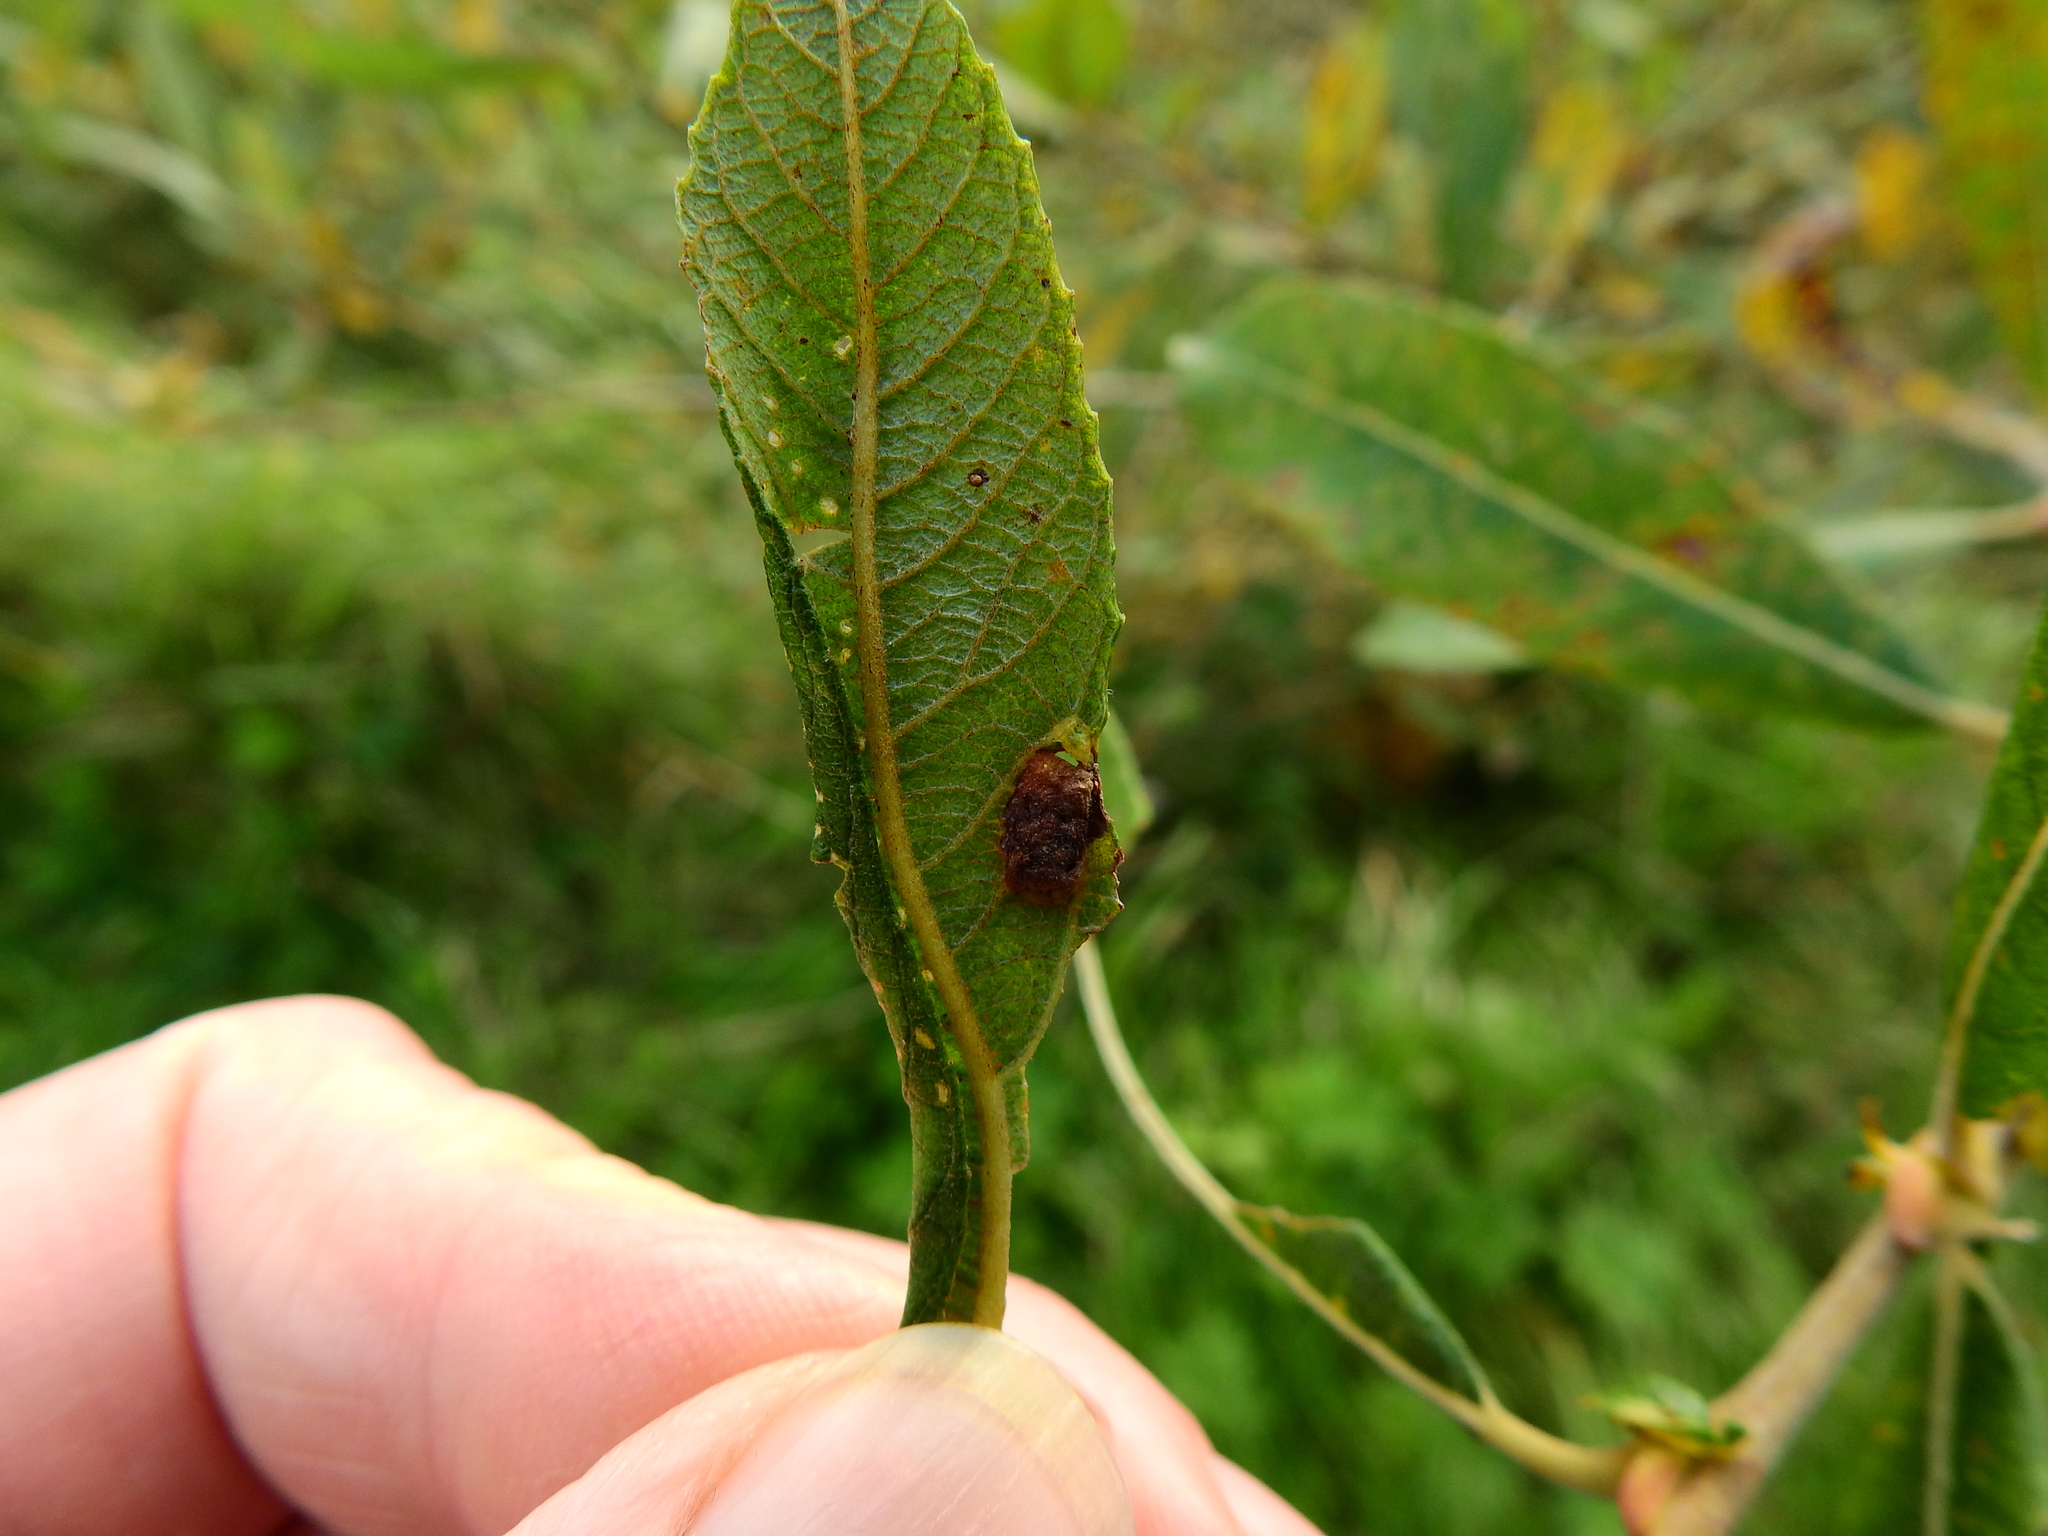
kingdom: Animalia
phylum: Arthropoda
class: Insecta
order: Hymenoptera
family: Tenthredinidae
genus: Pontania
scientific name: Pontania bridgmanii
